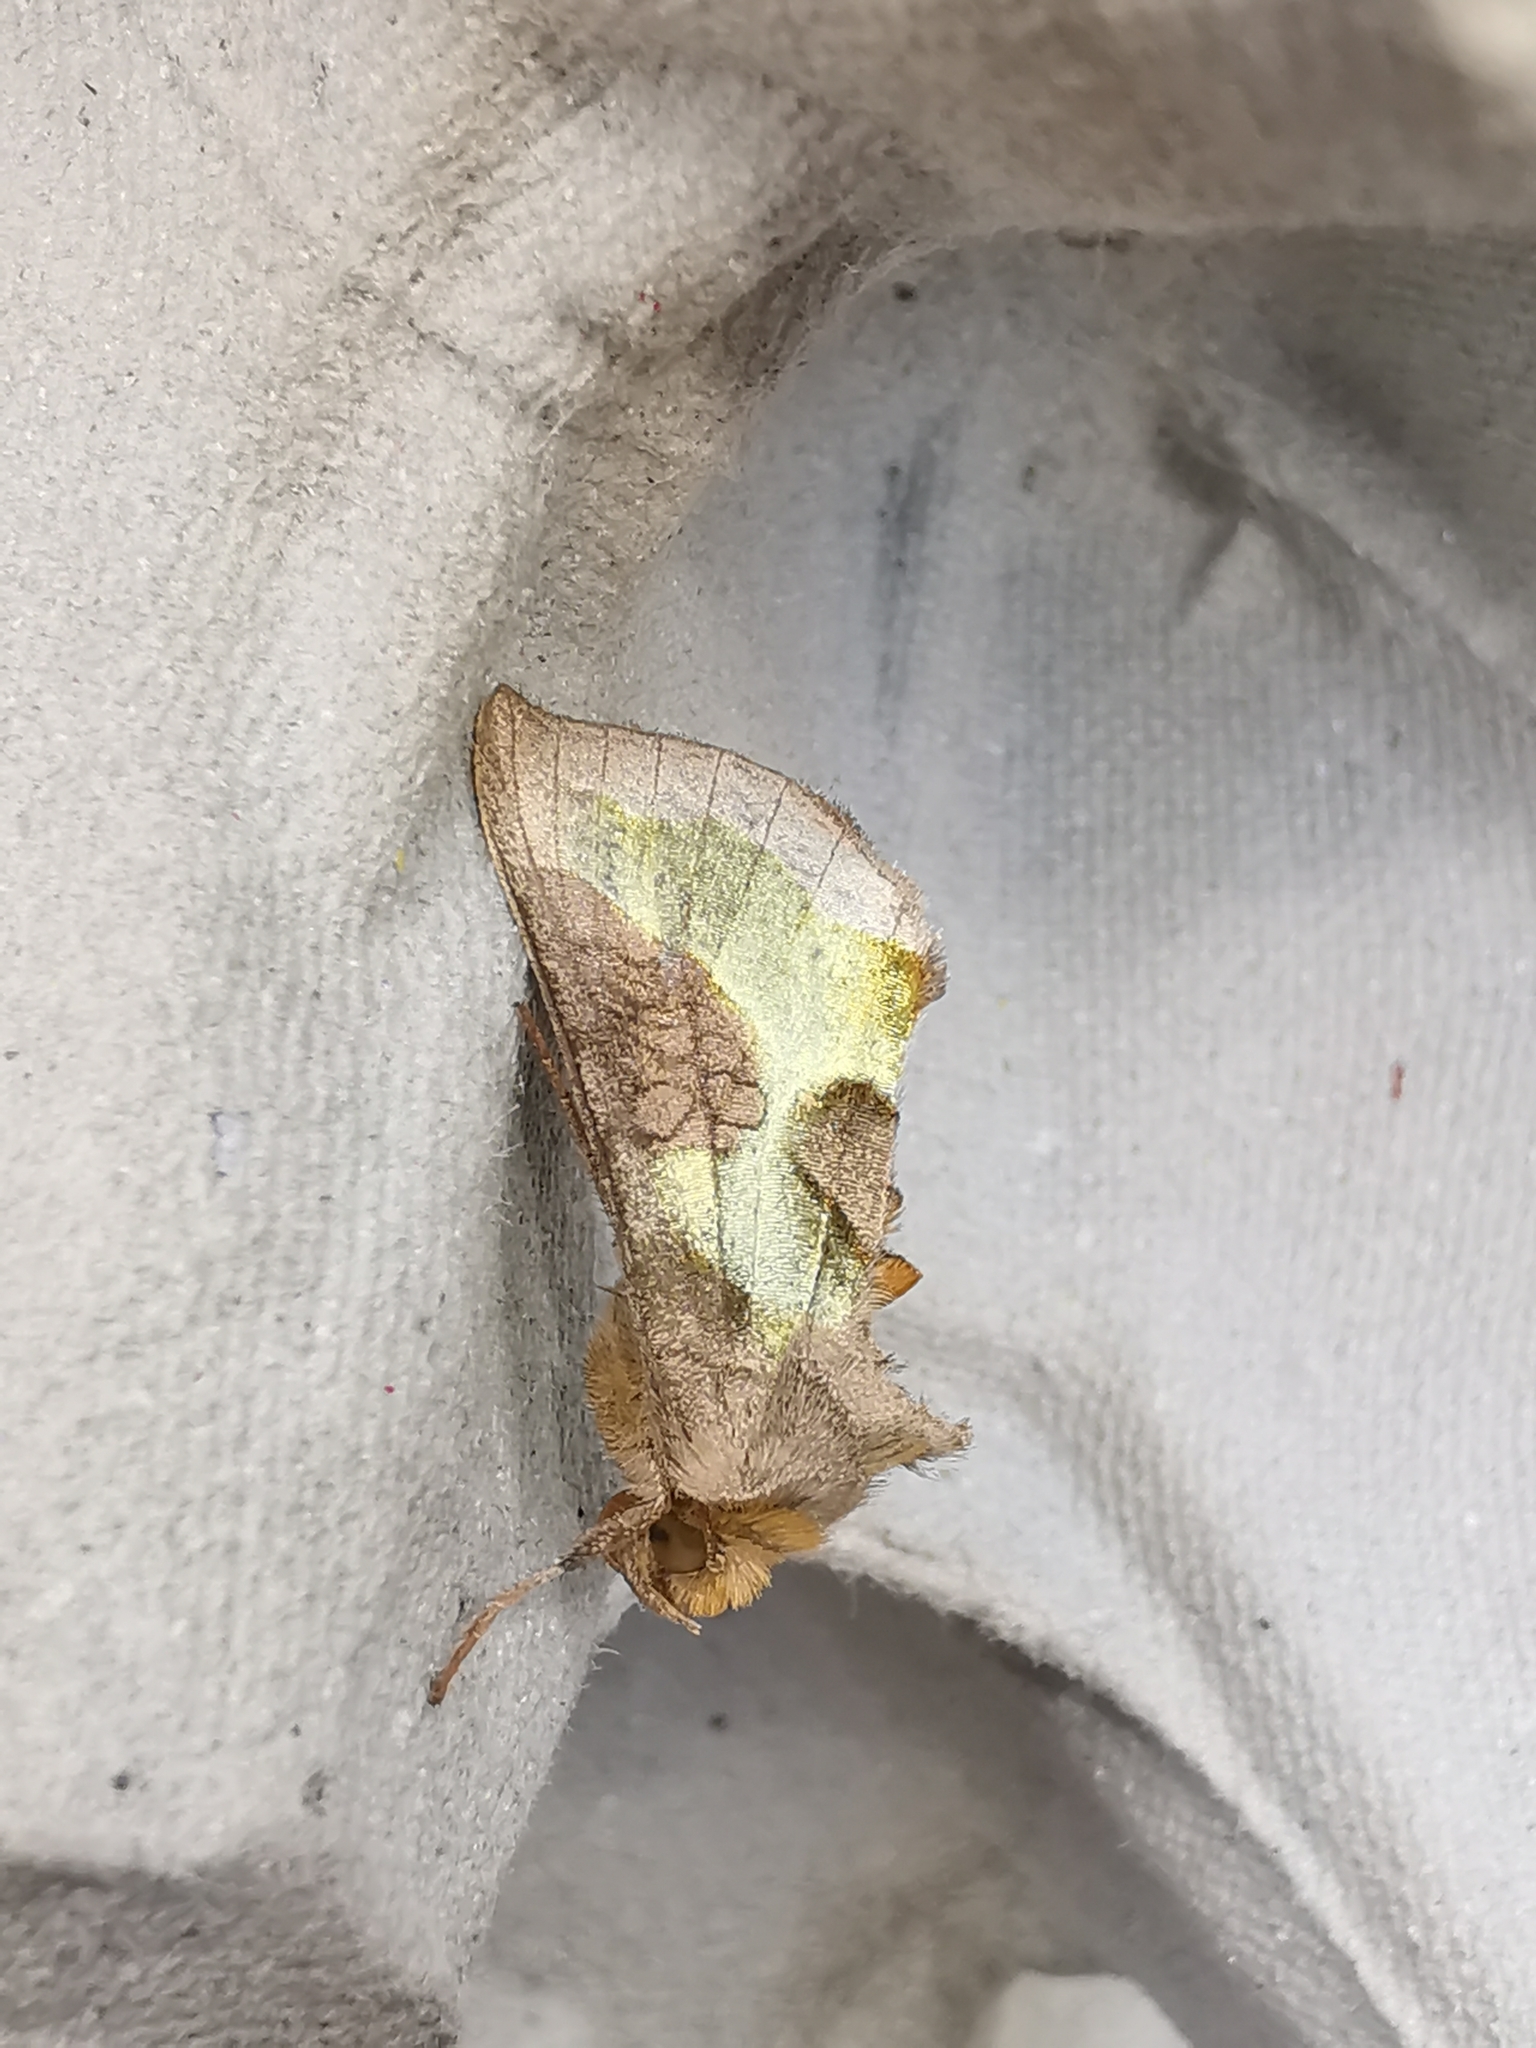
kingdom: Animalia
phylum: Arthropoda
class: Insecta
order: Lepidoptera
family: Noctuidae
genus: Diachrysia
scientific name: Diachrysia chrysitis
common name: Burnished brass
